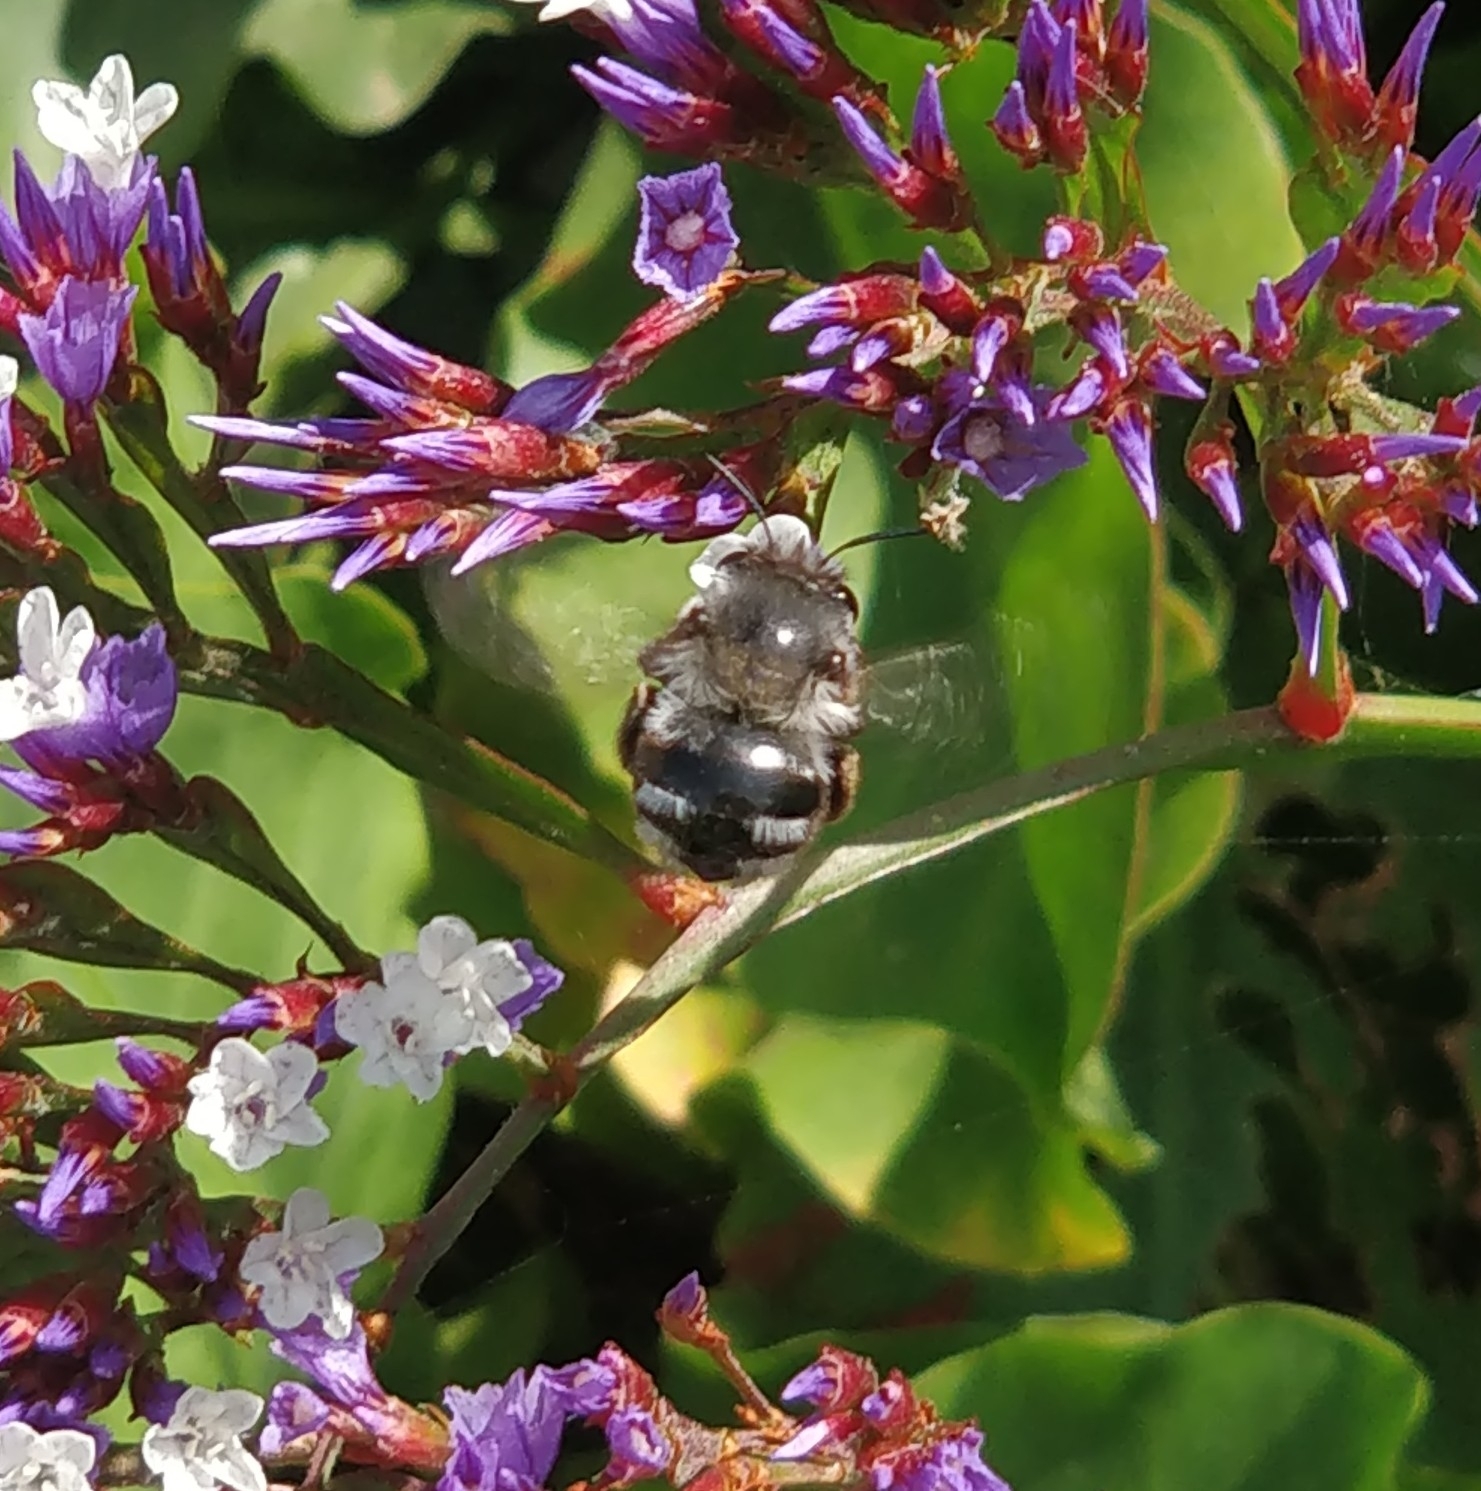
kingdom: Animalia
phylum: Arthropoda
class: Insecta
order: Hymenoptera
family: Apidae
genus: Anthophora
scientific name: Anthophora alluaudi
